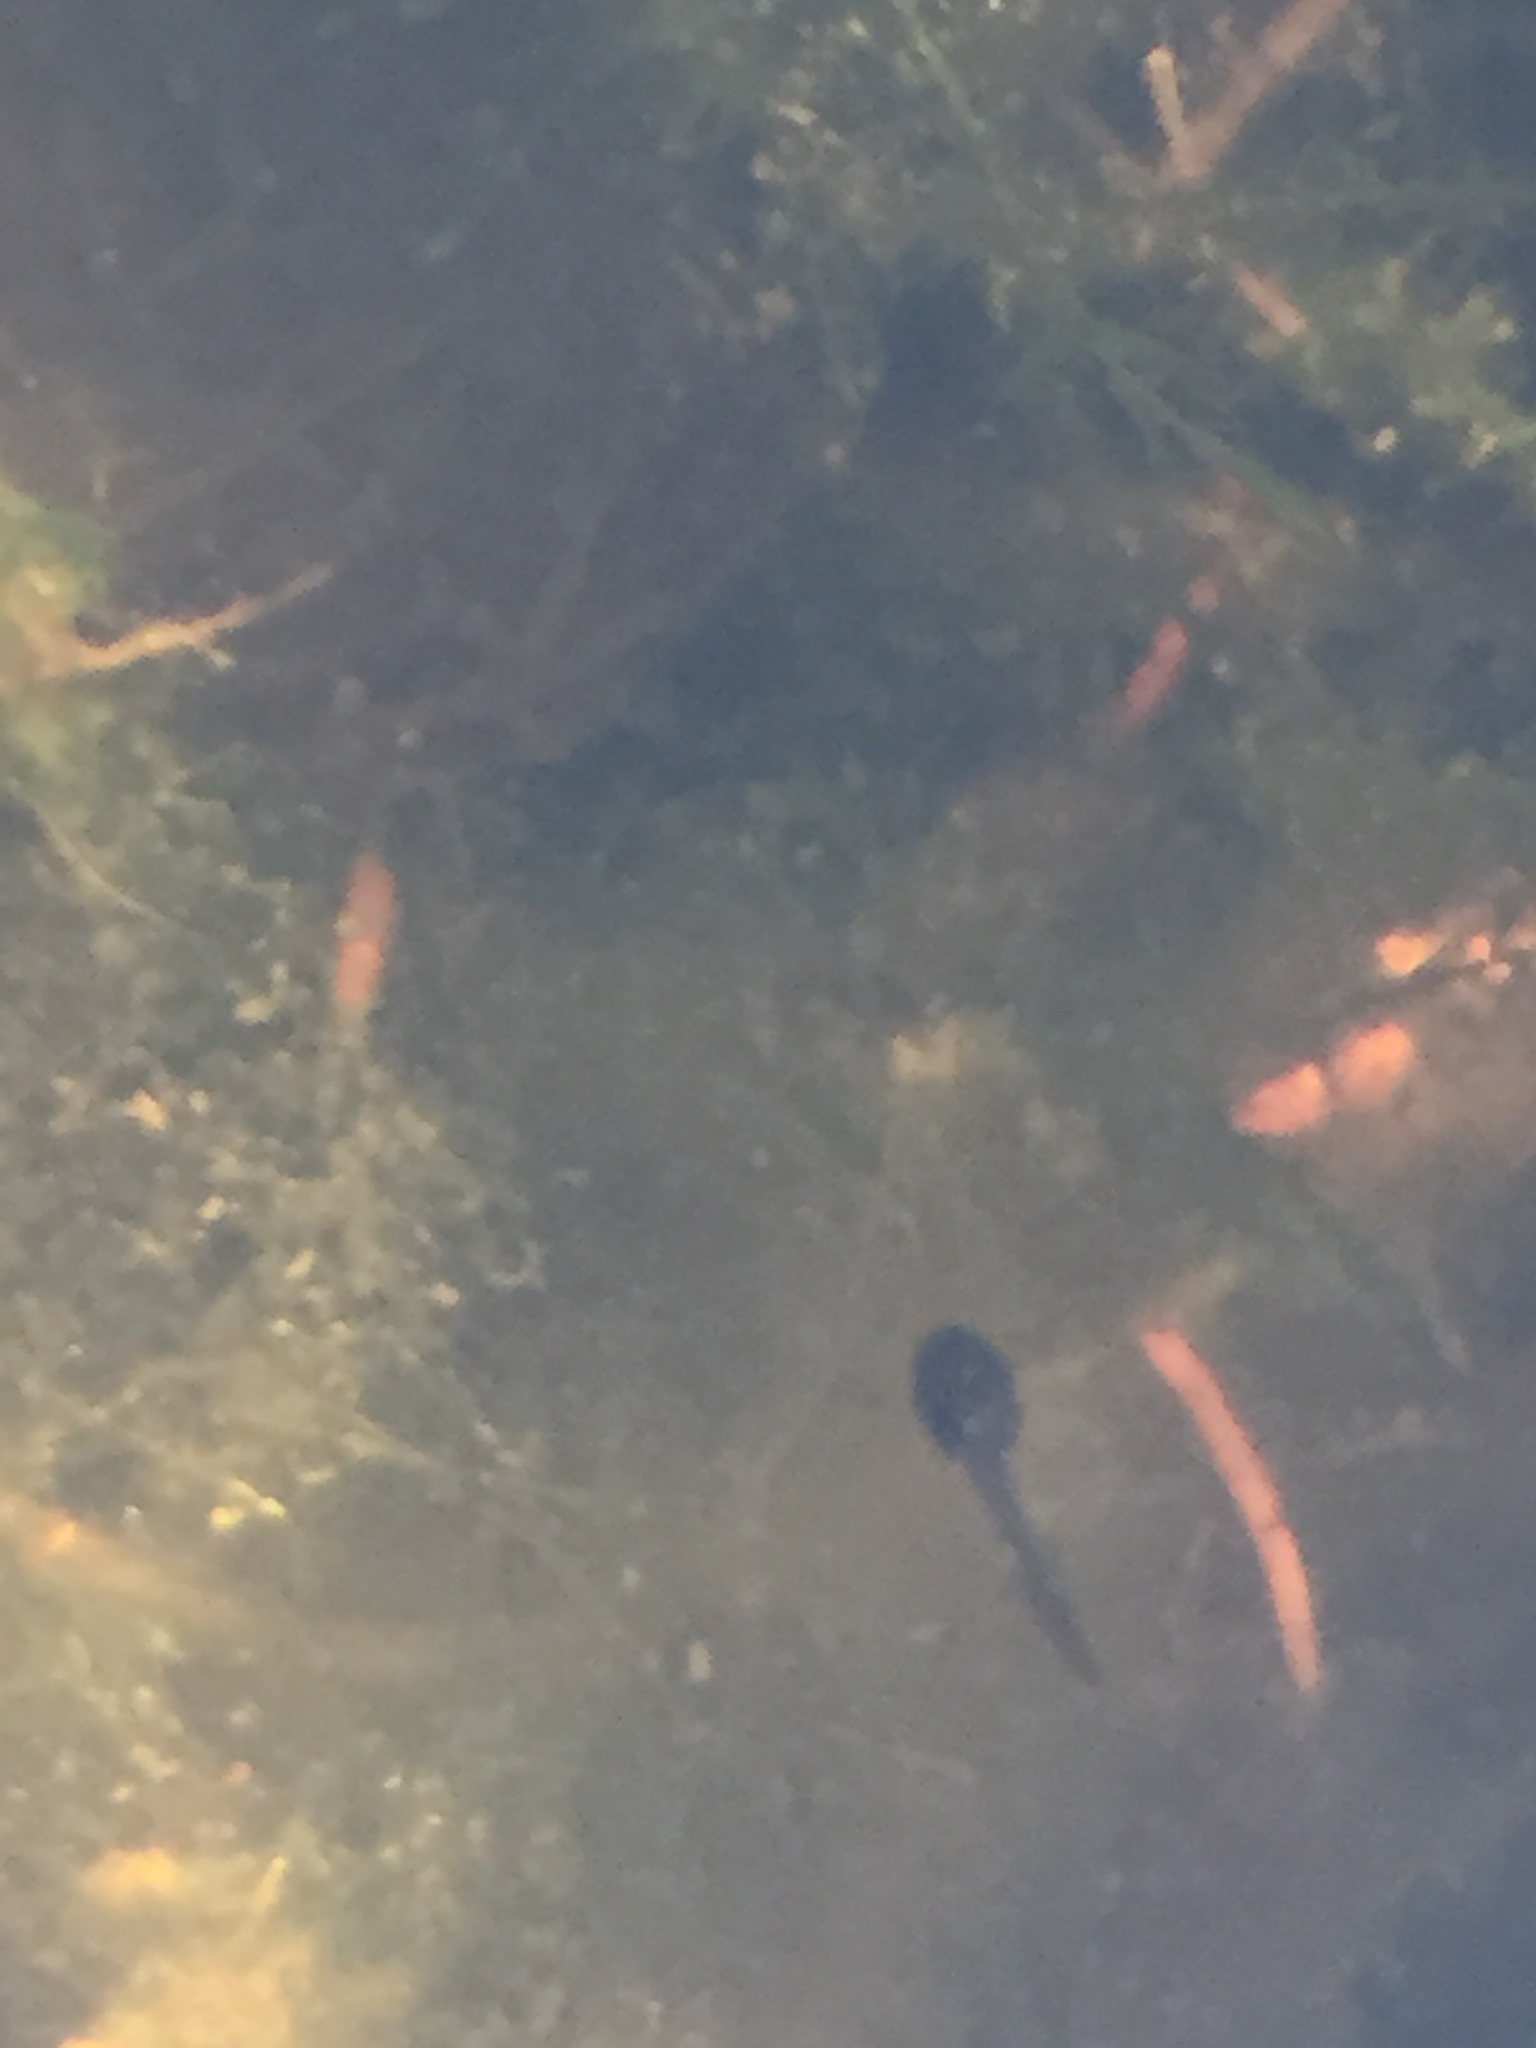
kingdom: Animalia
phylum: Chordata
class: Amphibia
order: Anura
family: Ranidae
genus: Lithobates
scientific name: Lithobates sylvaticus
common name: Wood frog
